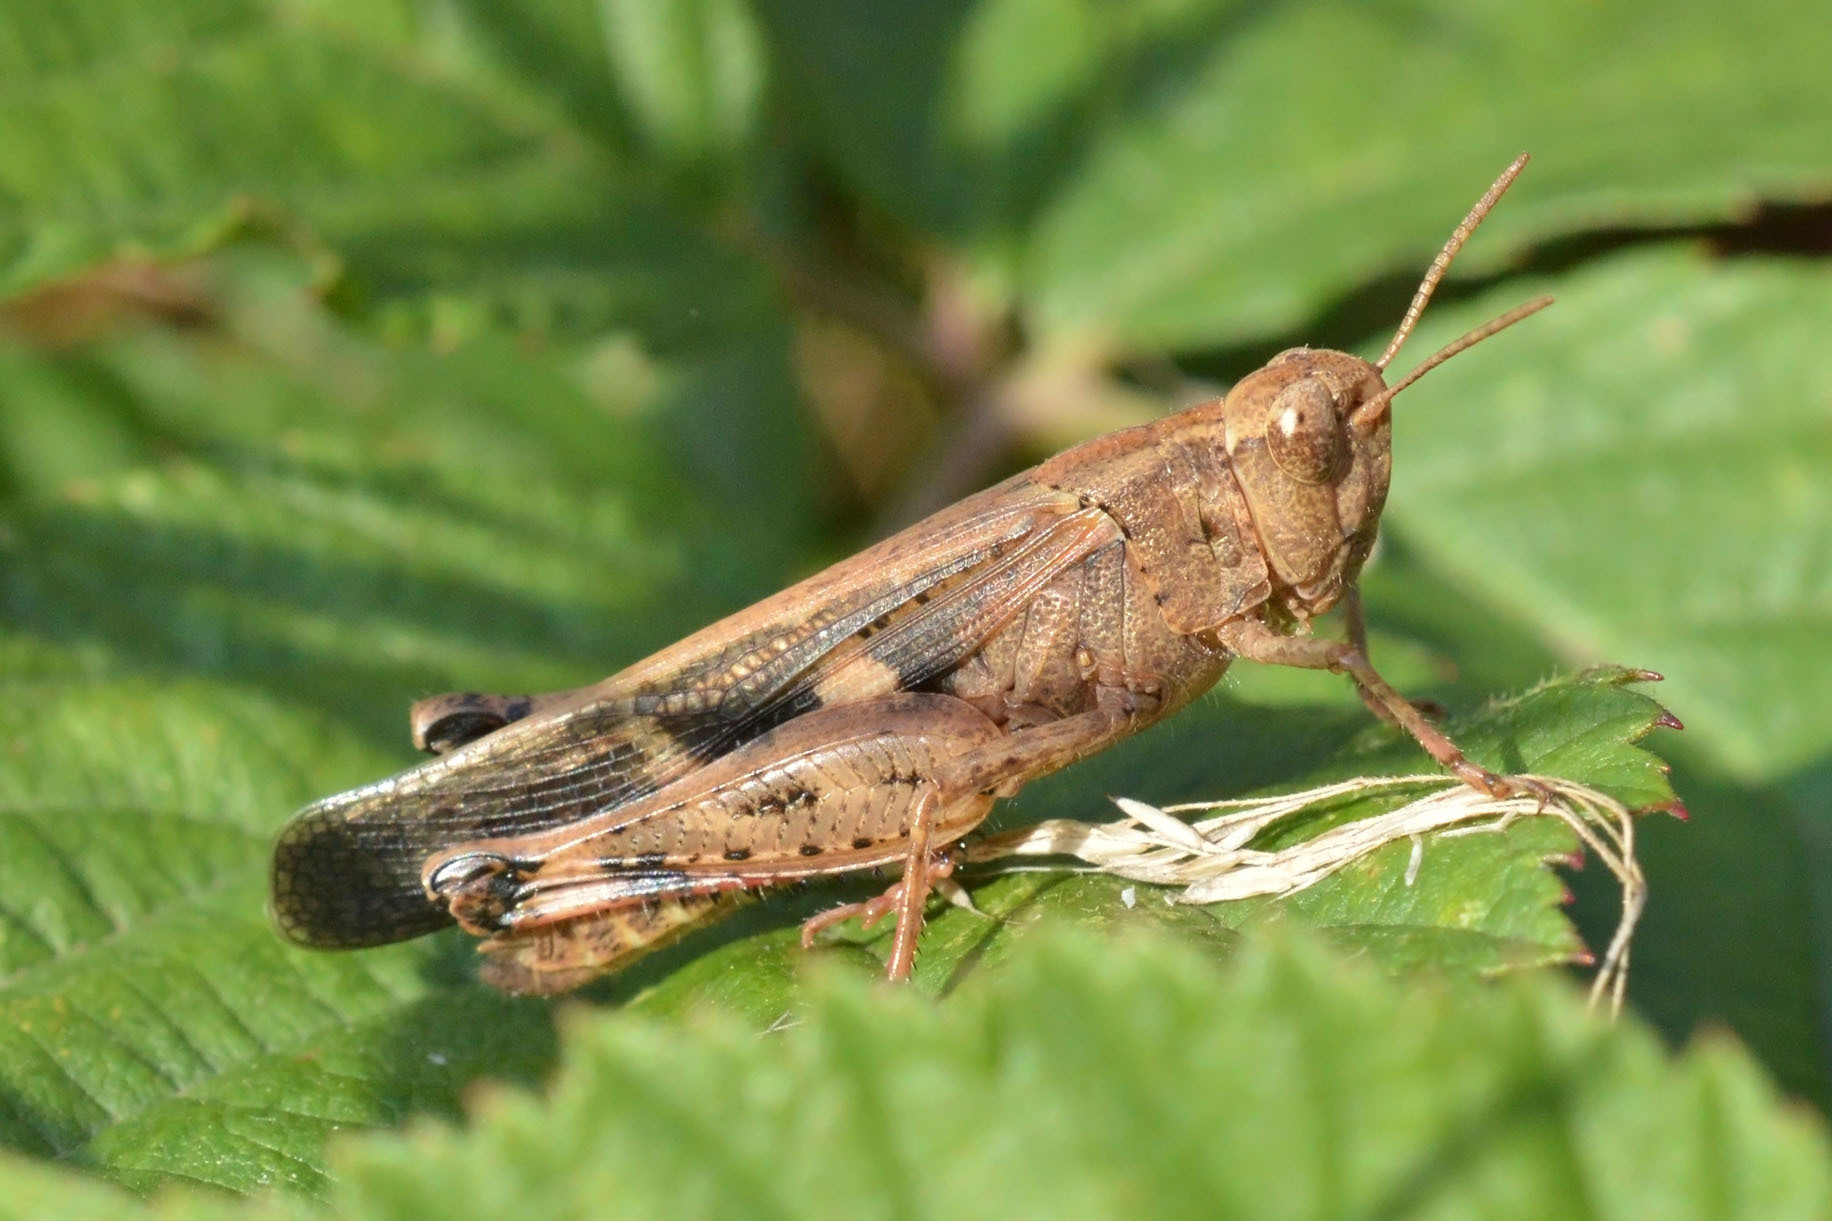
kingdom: Animalia
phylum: Arthropoda
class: Insecta
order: Orthoptera
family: Acrididae
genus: Aiolopus
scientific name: Aiolopus strepens
